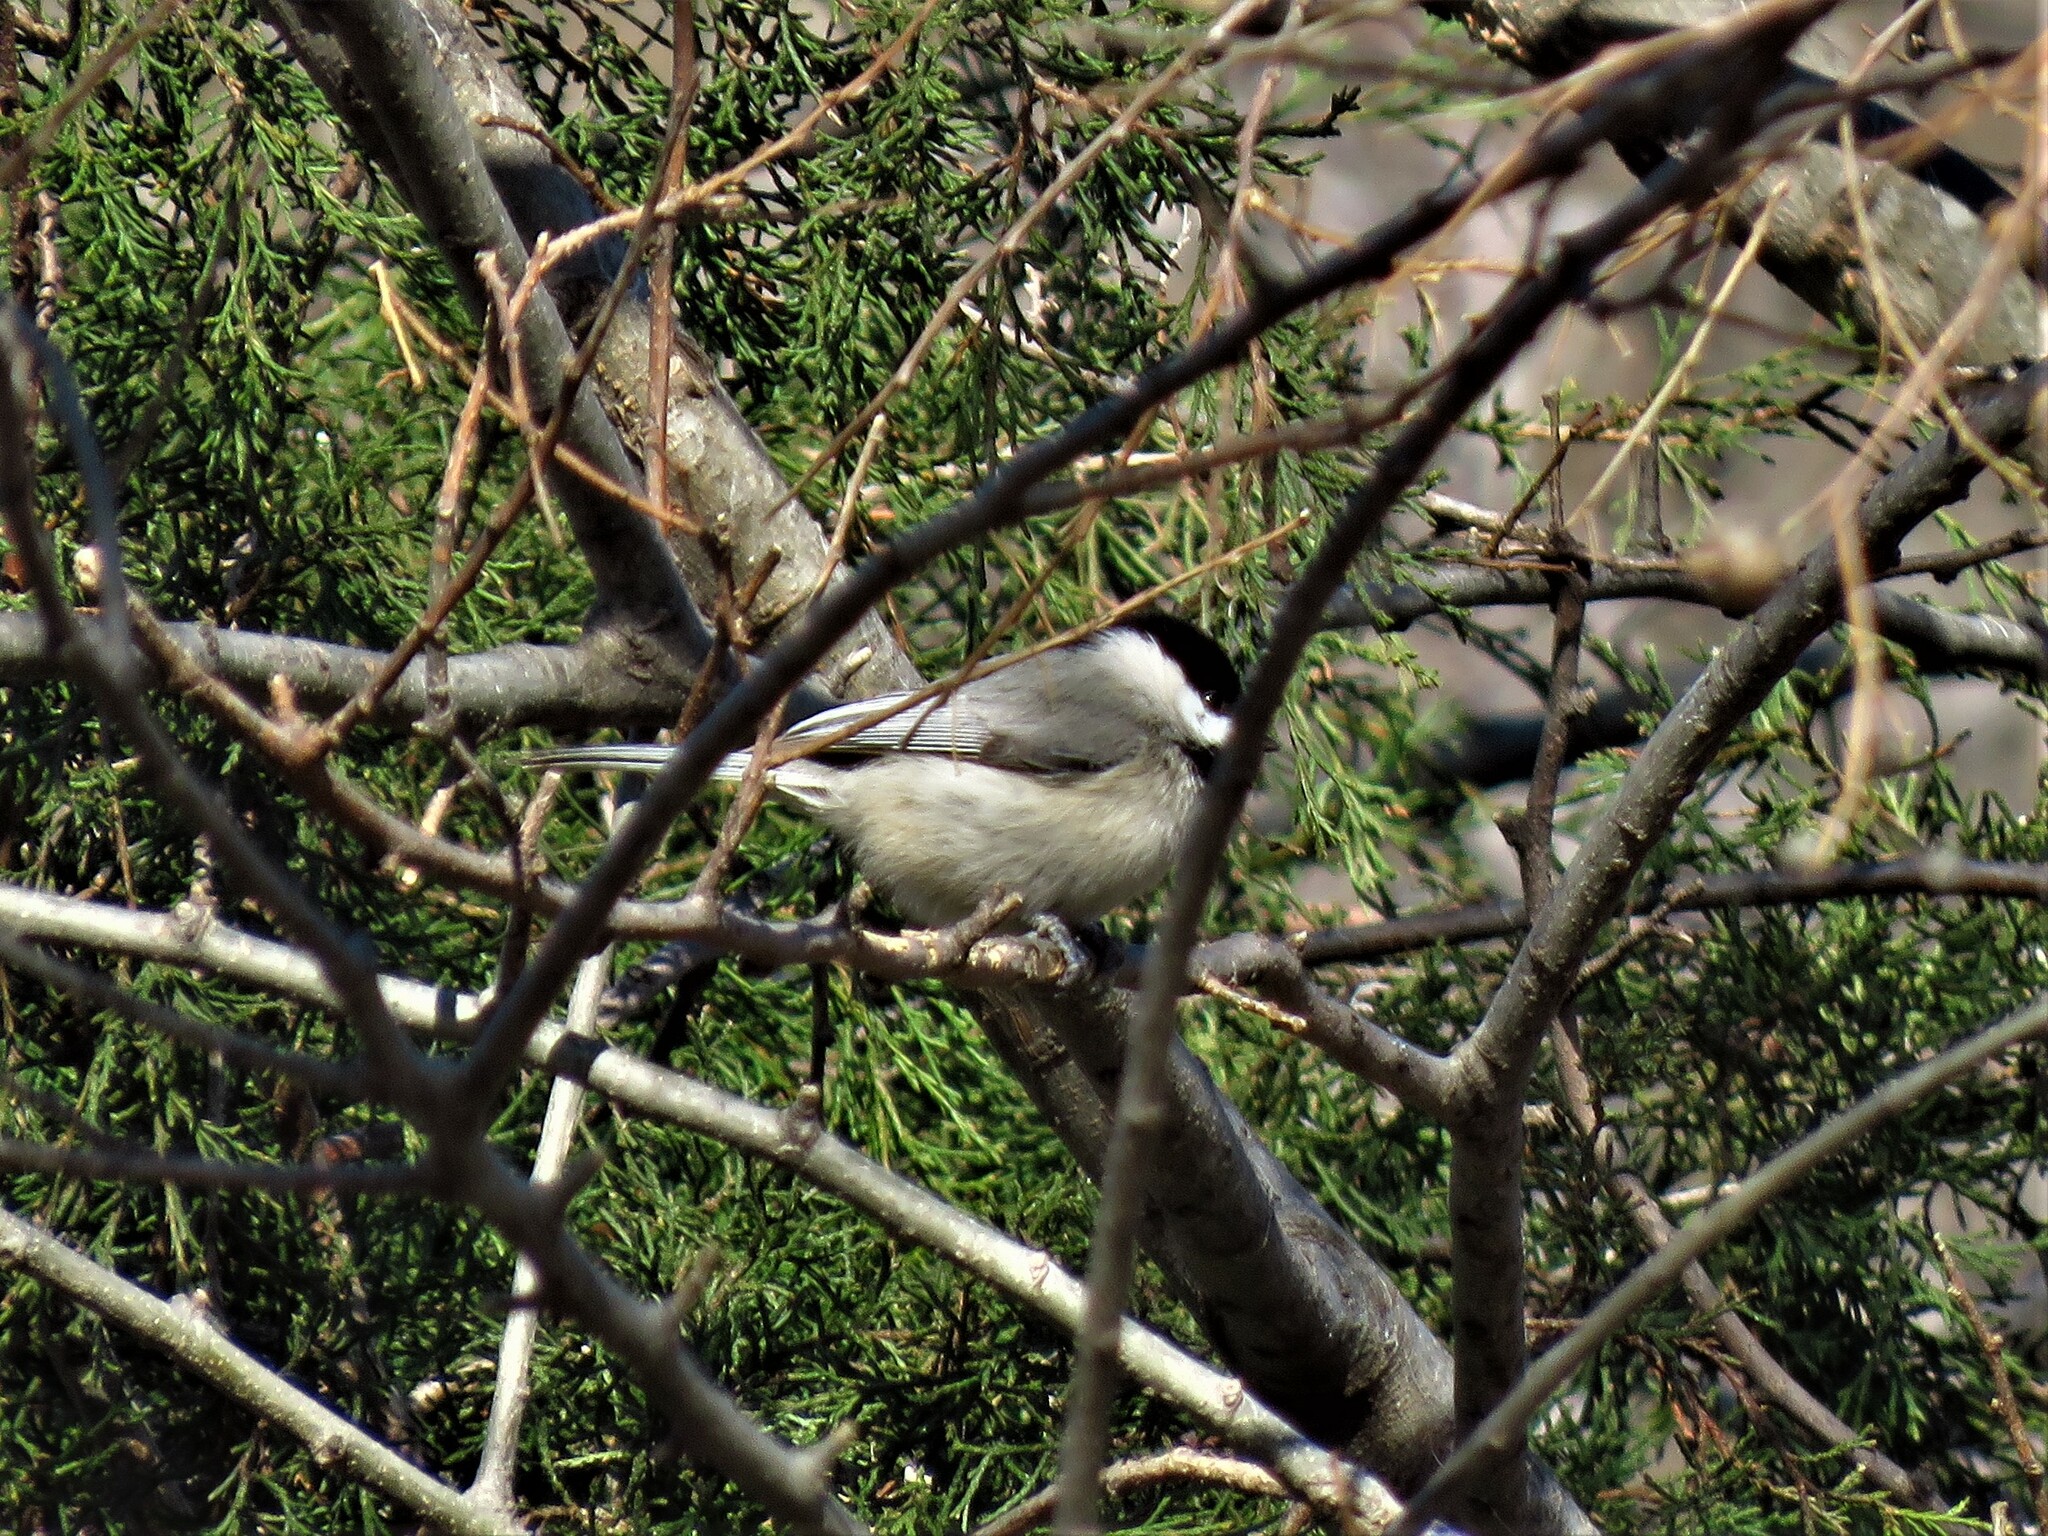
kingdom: Animalia
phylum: Chordata
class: Aves
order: Passeriformes
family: Paridae
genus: Poecile
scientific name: Poecile carolinensis
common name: Carolina chickadee
